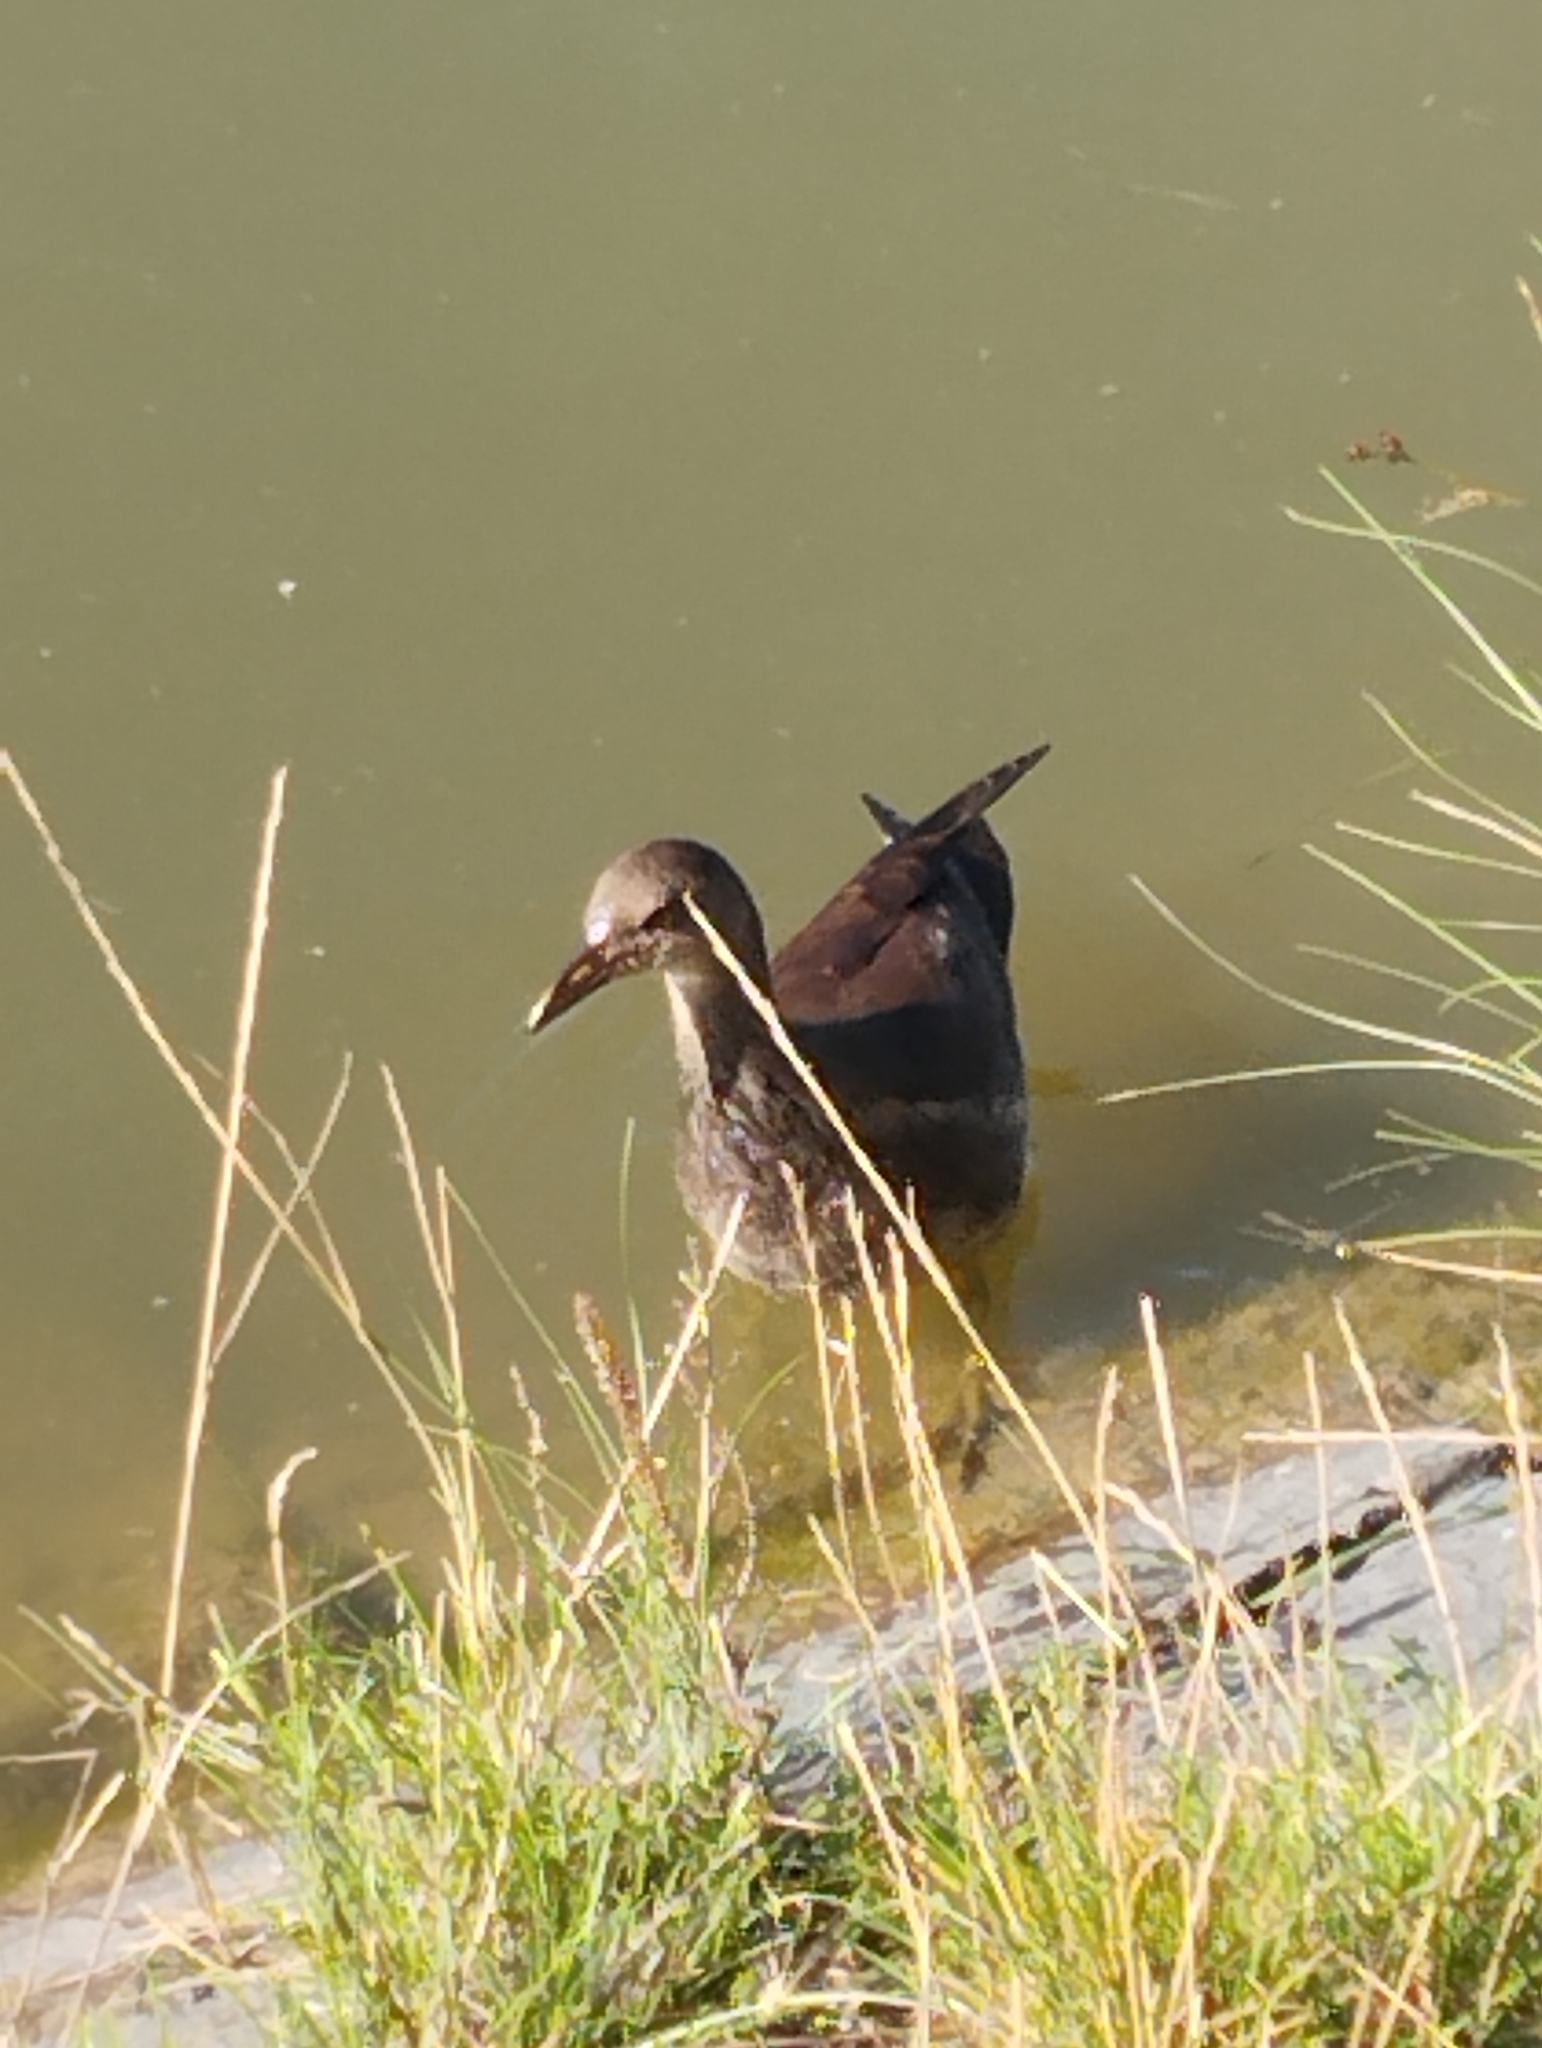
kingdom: Animalia
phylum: Chordata
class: Aves
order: Gruiformes
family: Rallidae
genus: Gallinula
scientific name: Gallinula chloropus
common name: Common moorhen
